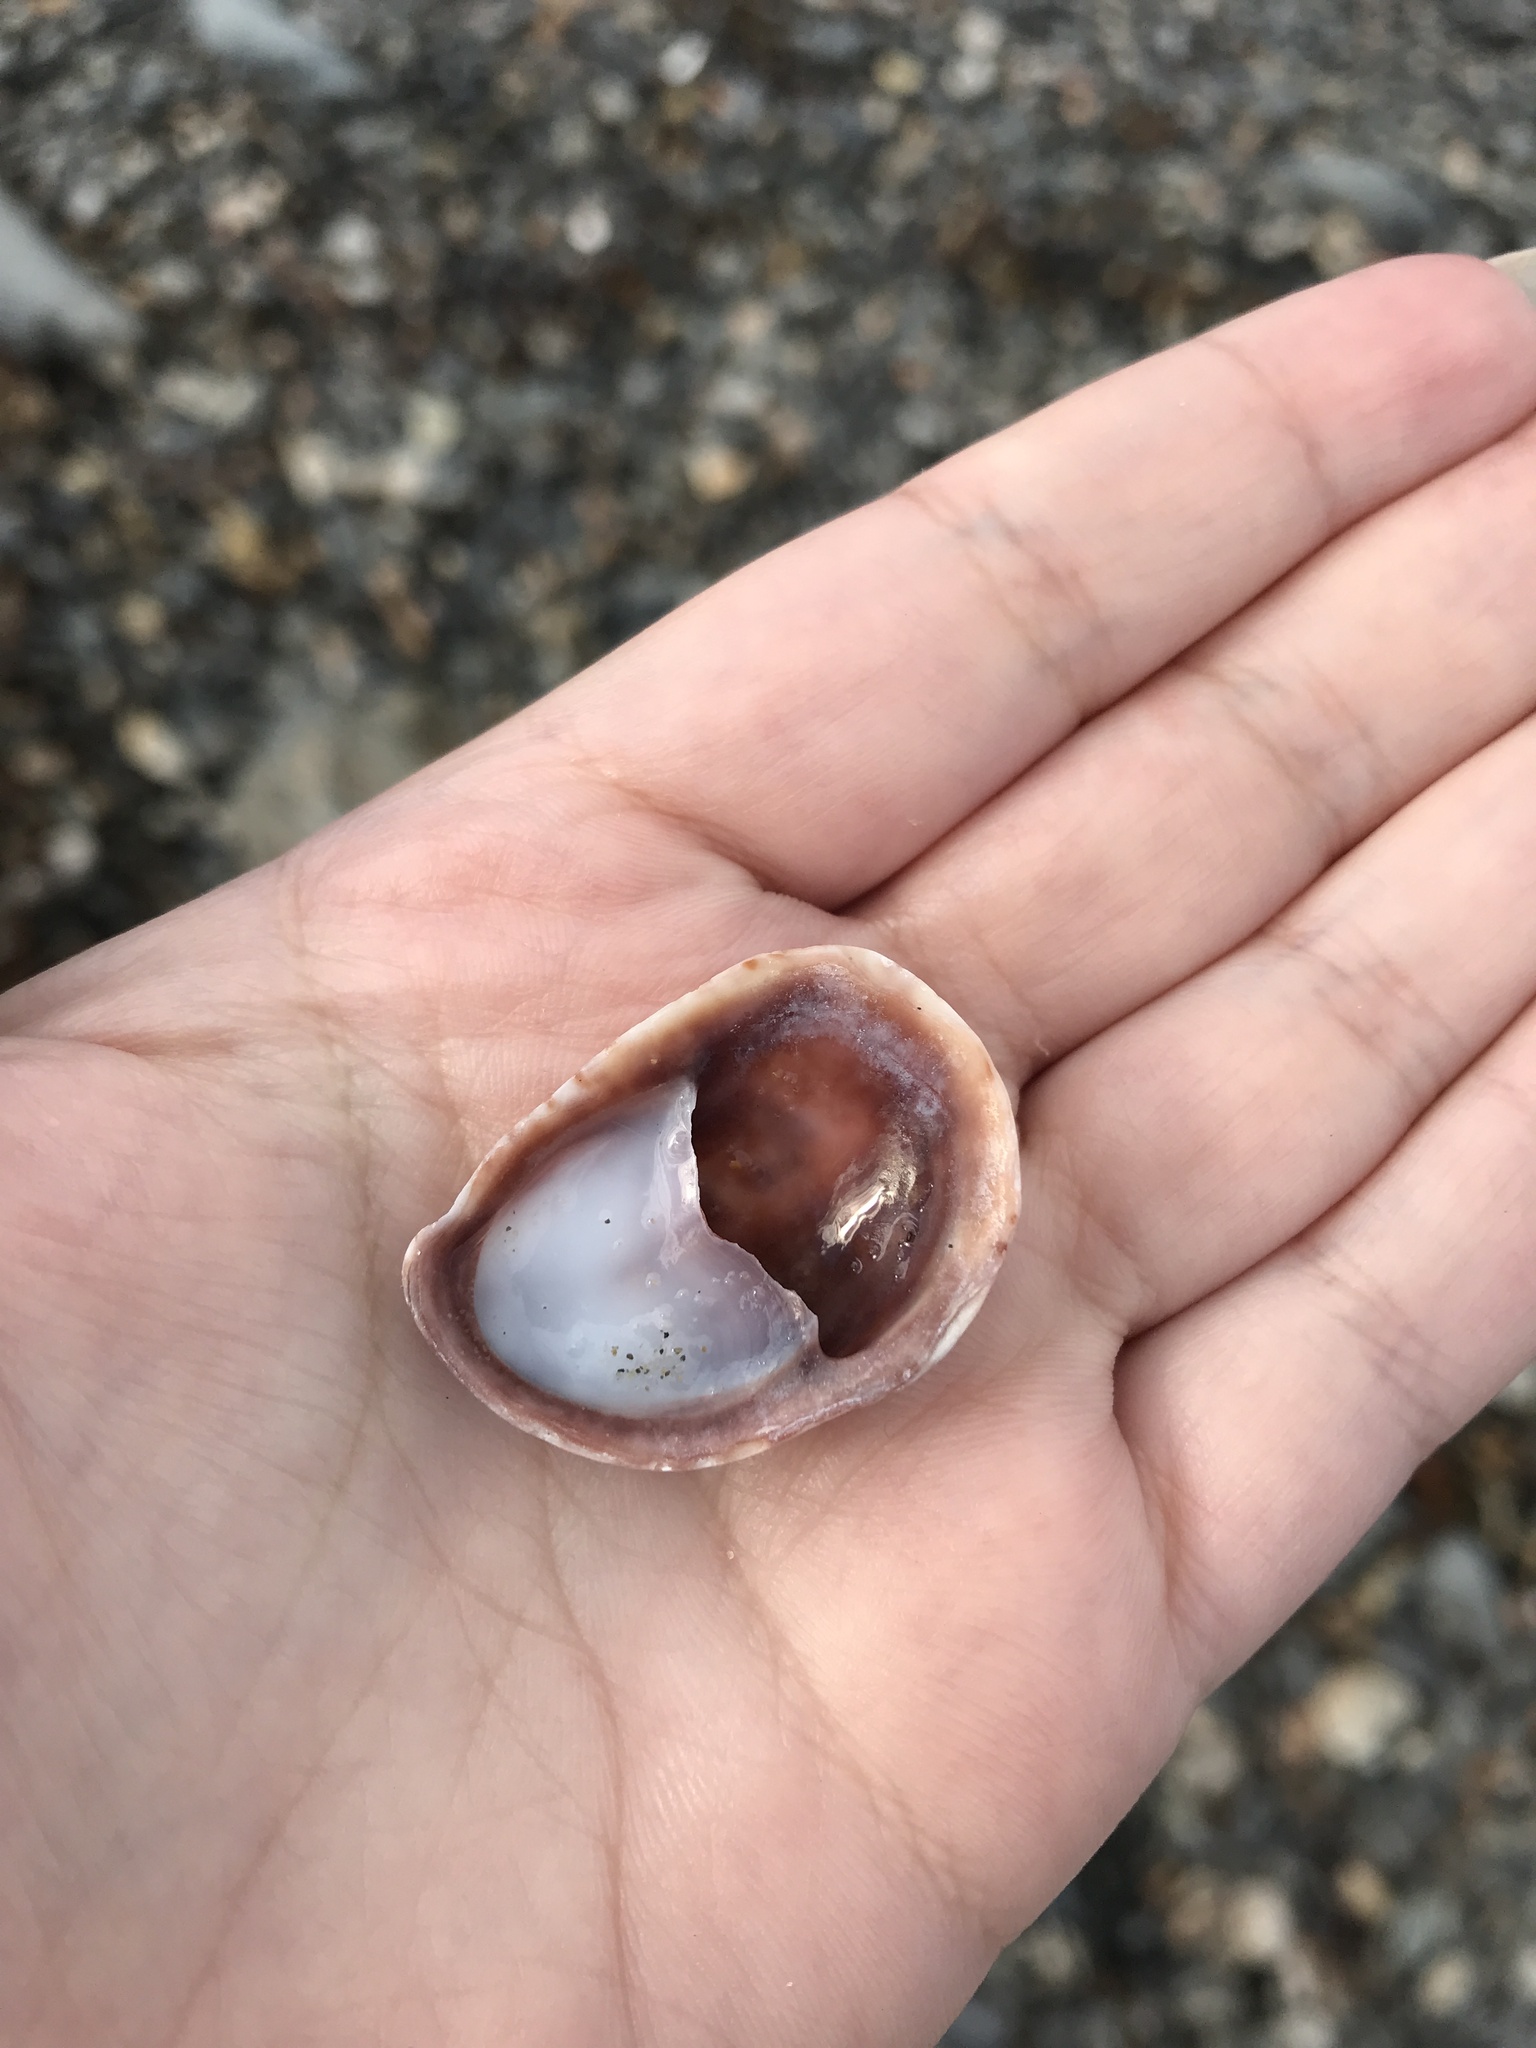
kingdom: Animalia
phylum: Mollusca
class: Gastropoda
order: Littorinimorpha
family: Calyptraeidae
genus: Crepidula
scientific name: Crepidula fornicata
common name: Slipper limpet
